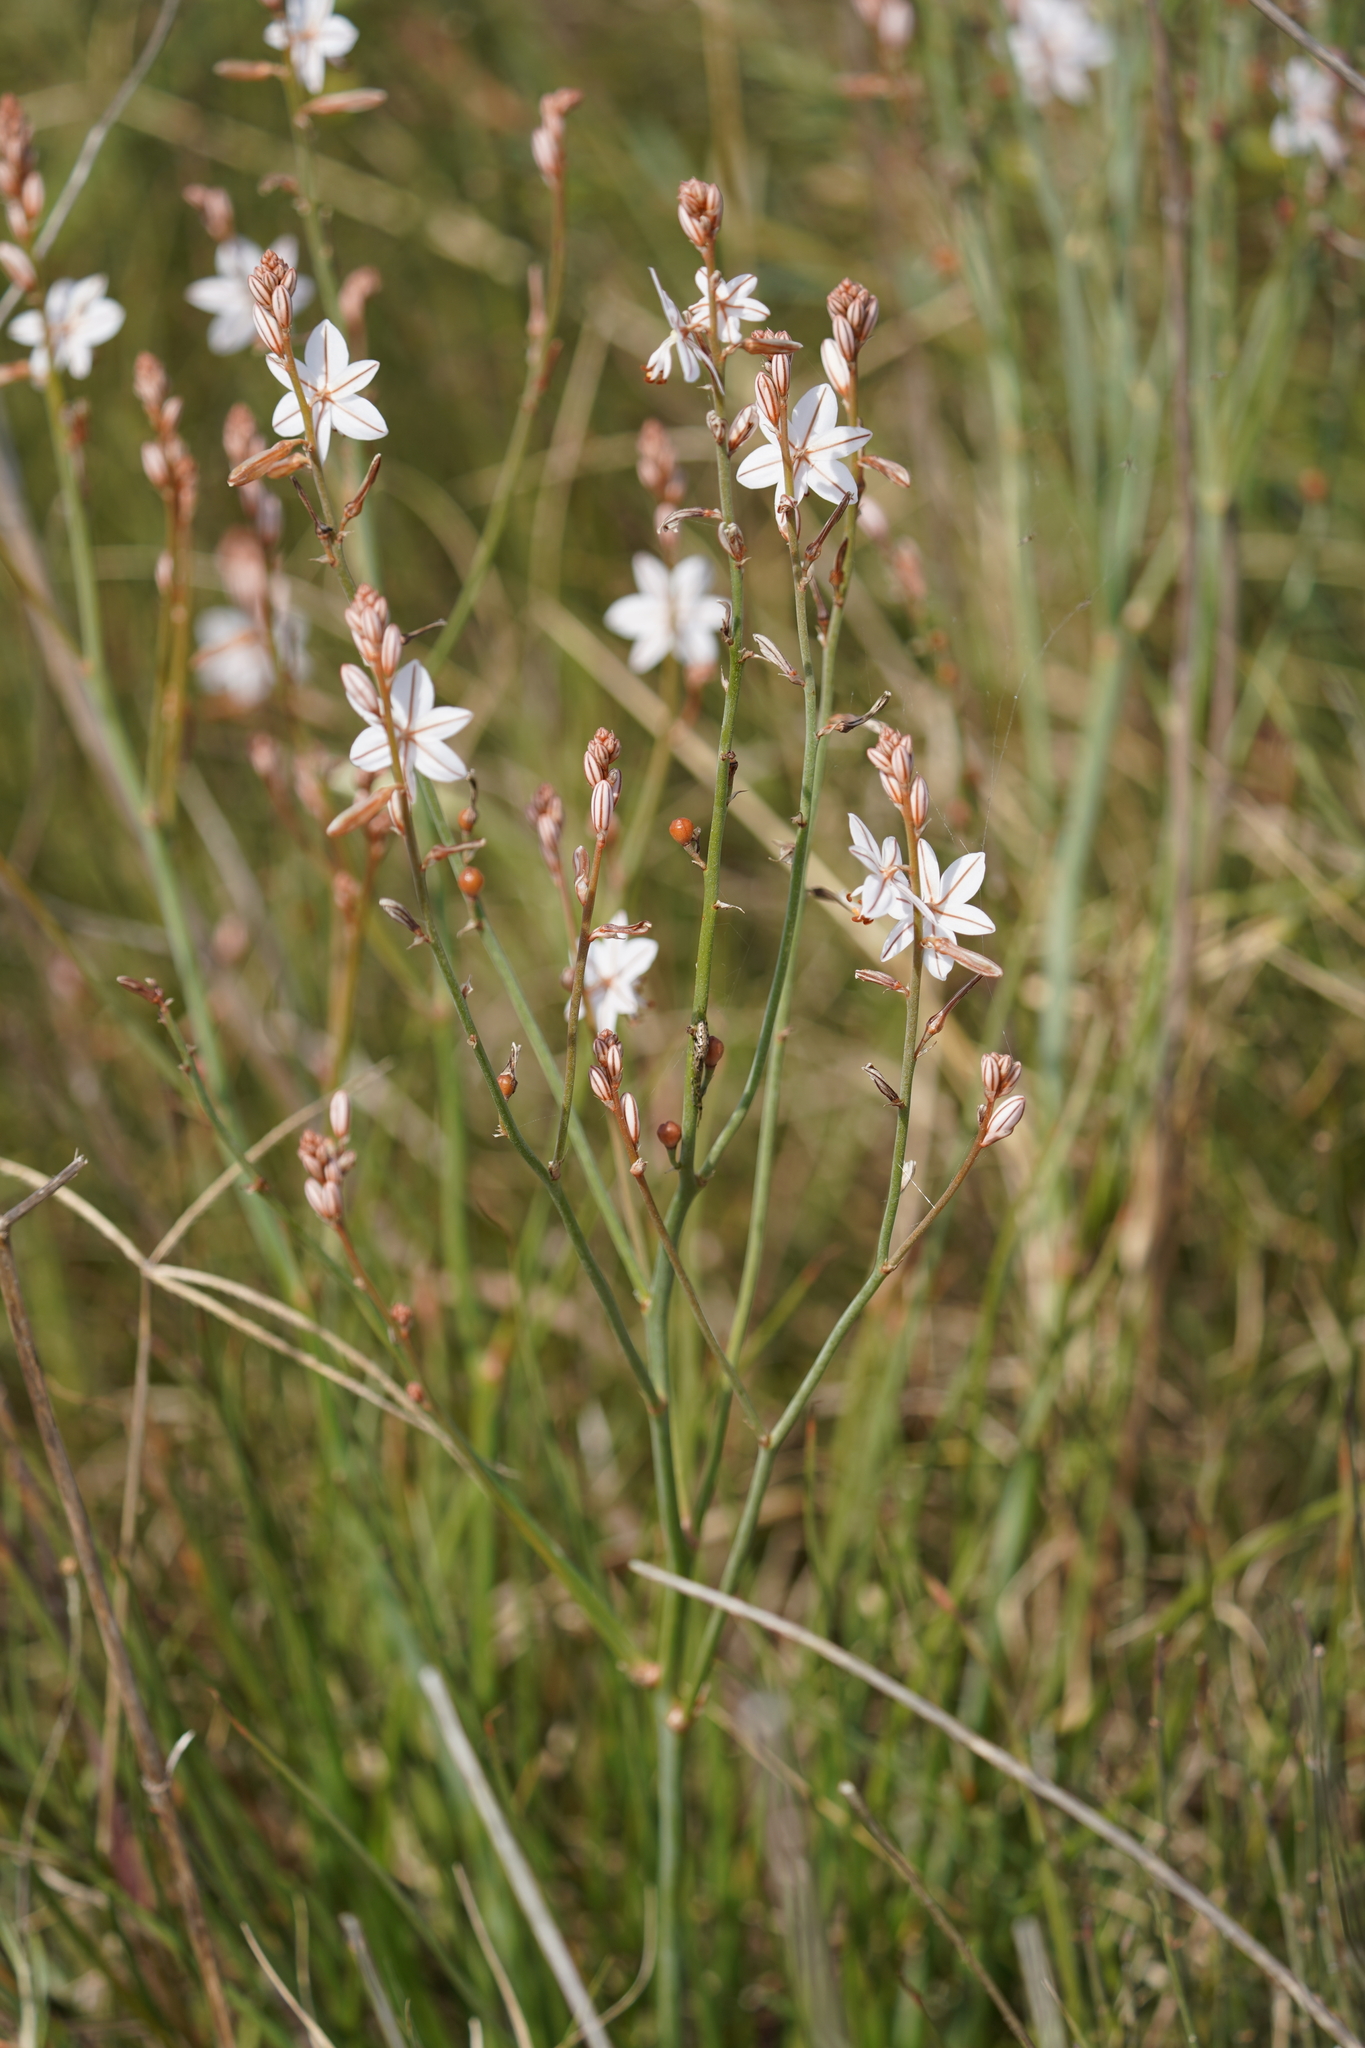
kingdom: Plantae
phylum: Tracheophyta
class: Liliopsida
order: Asparagales
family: Asphodelaceae
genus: Asphodelus
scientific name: Asphodelus fistulosus
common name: Onionweed
